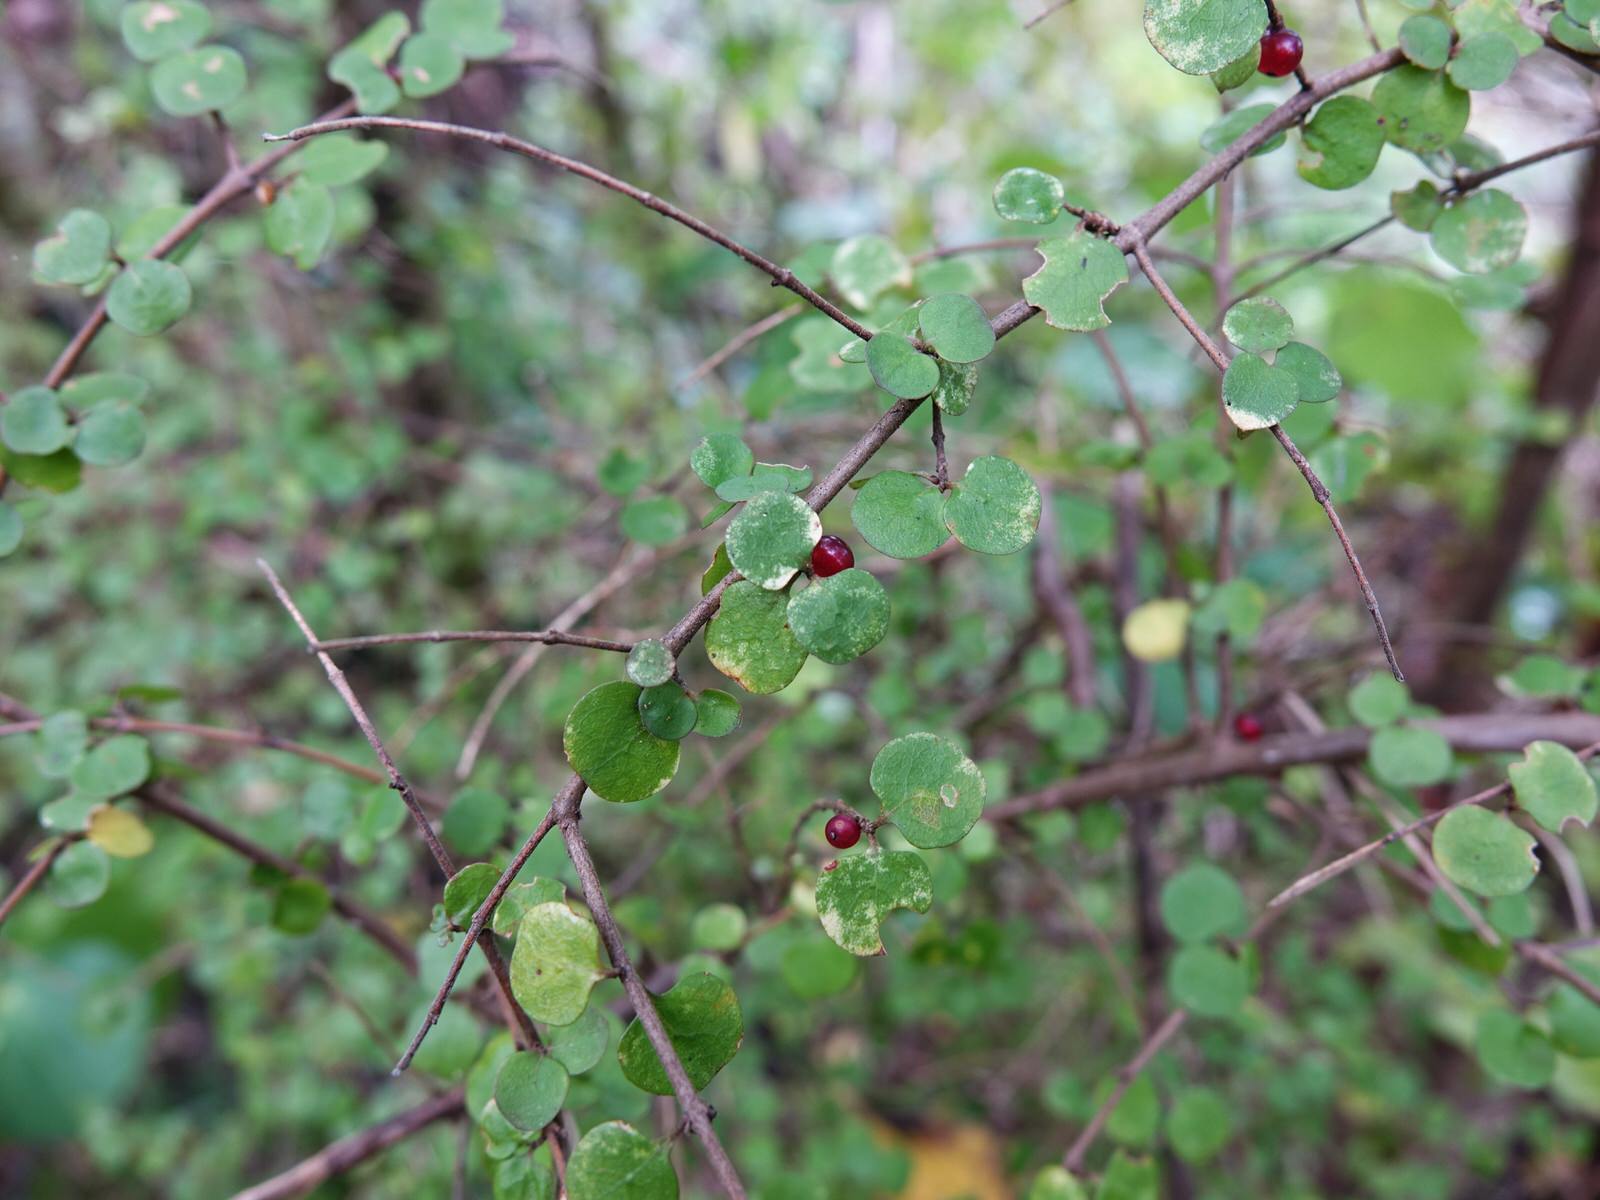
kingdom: Plantae
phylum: Tracheophyta
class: Magnoliopsida
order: Gentianales
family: Rubiaceae
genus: Coprosma
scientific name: Coprosma rhamnoides
